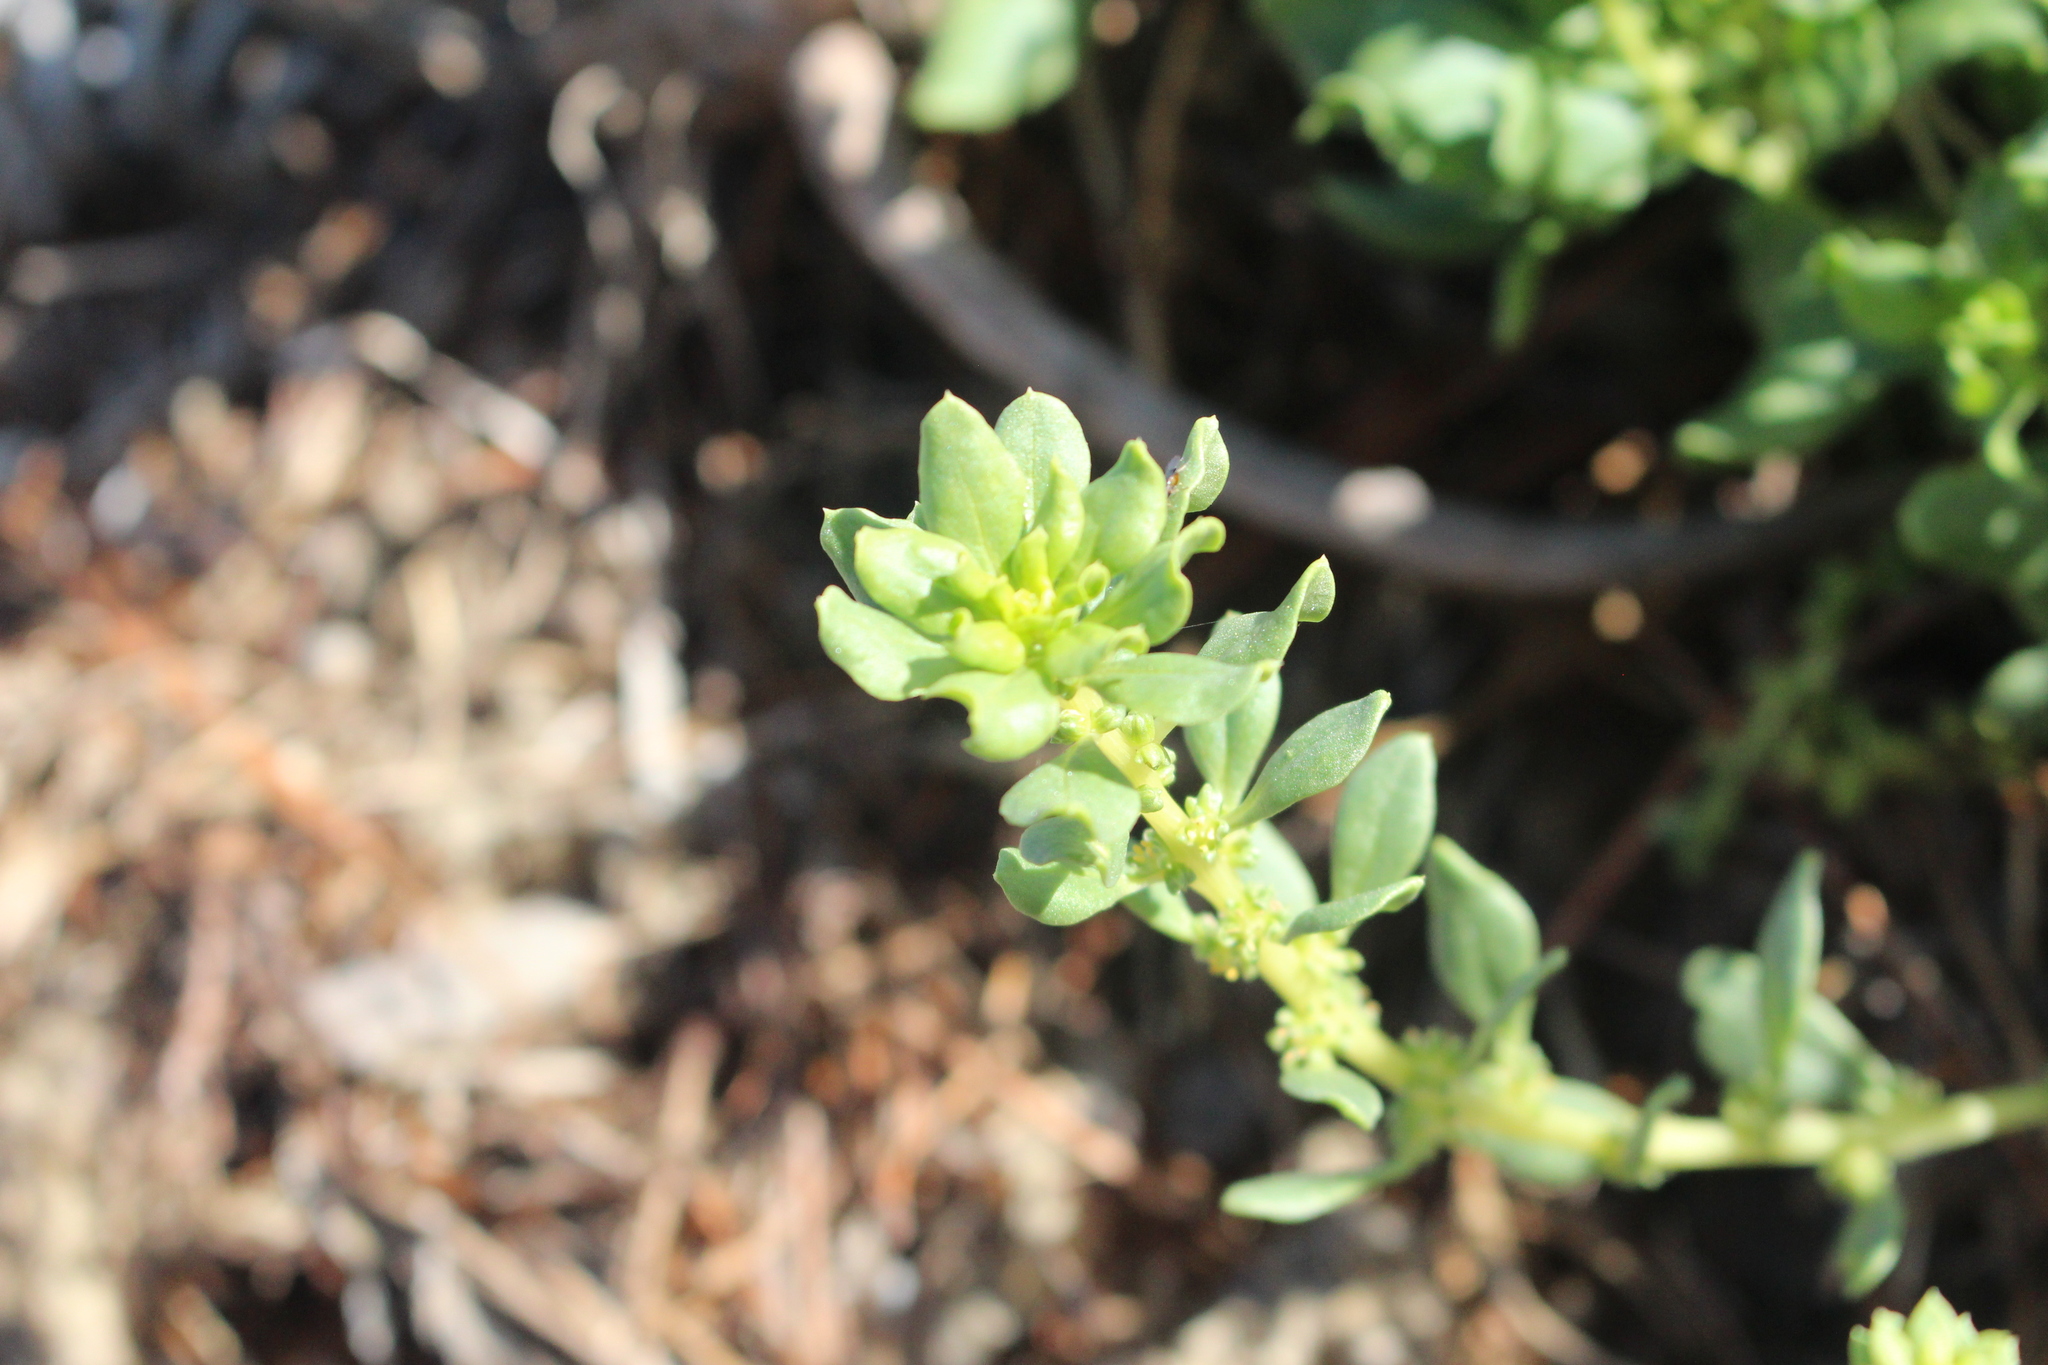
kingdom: Plantae
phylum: Tracheophyta
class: Magnoliopsida
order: Caryophyllales
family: Amaranthaceae
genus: Beta
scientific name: Beta vulgaris
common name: Beet
